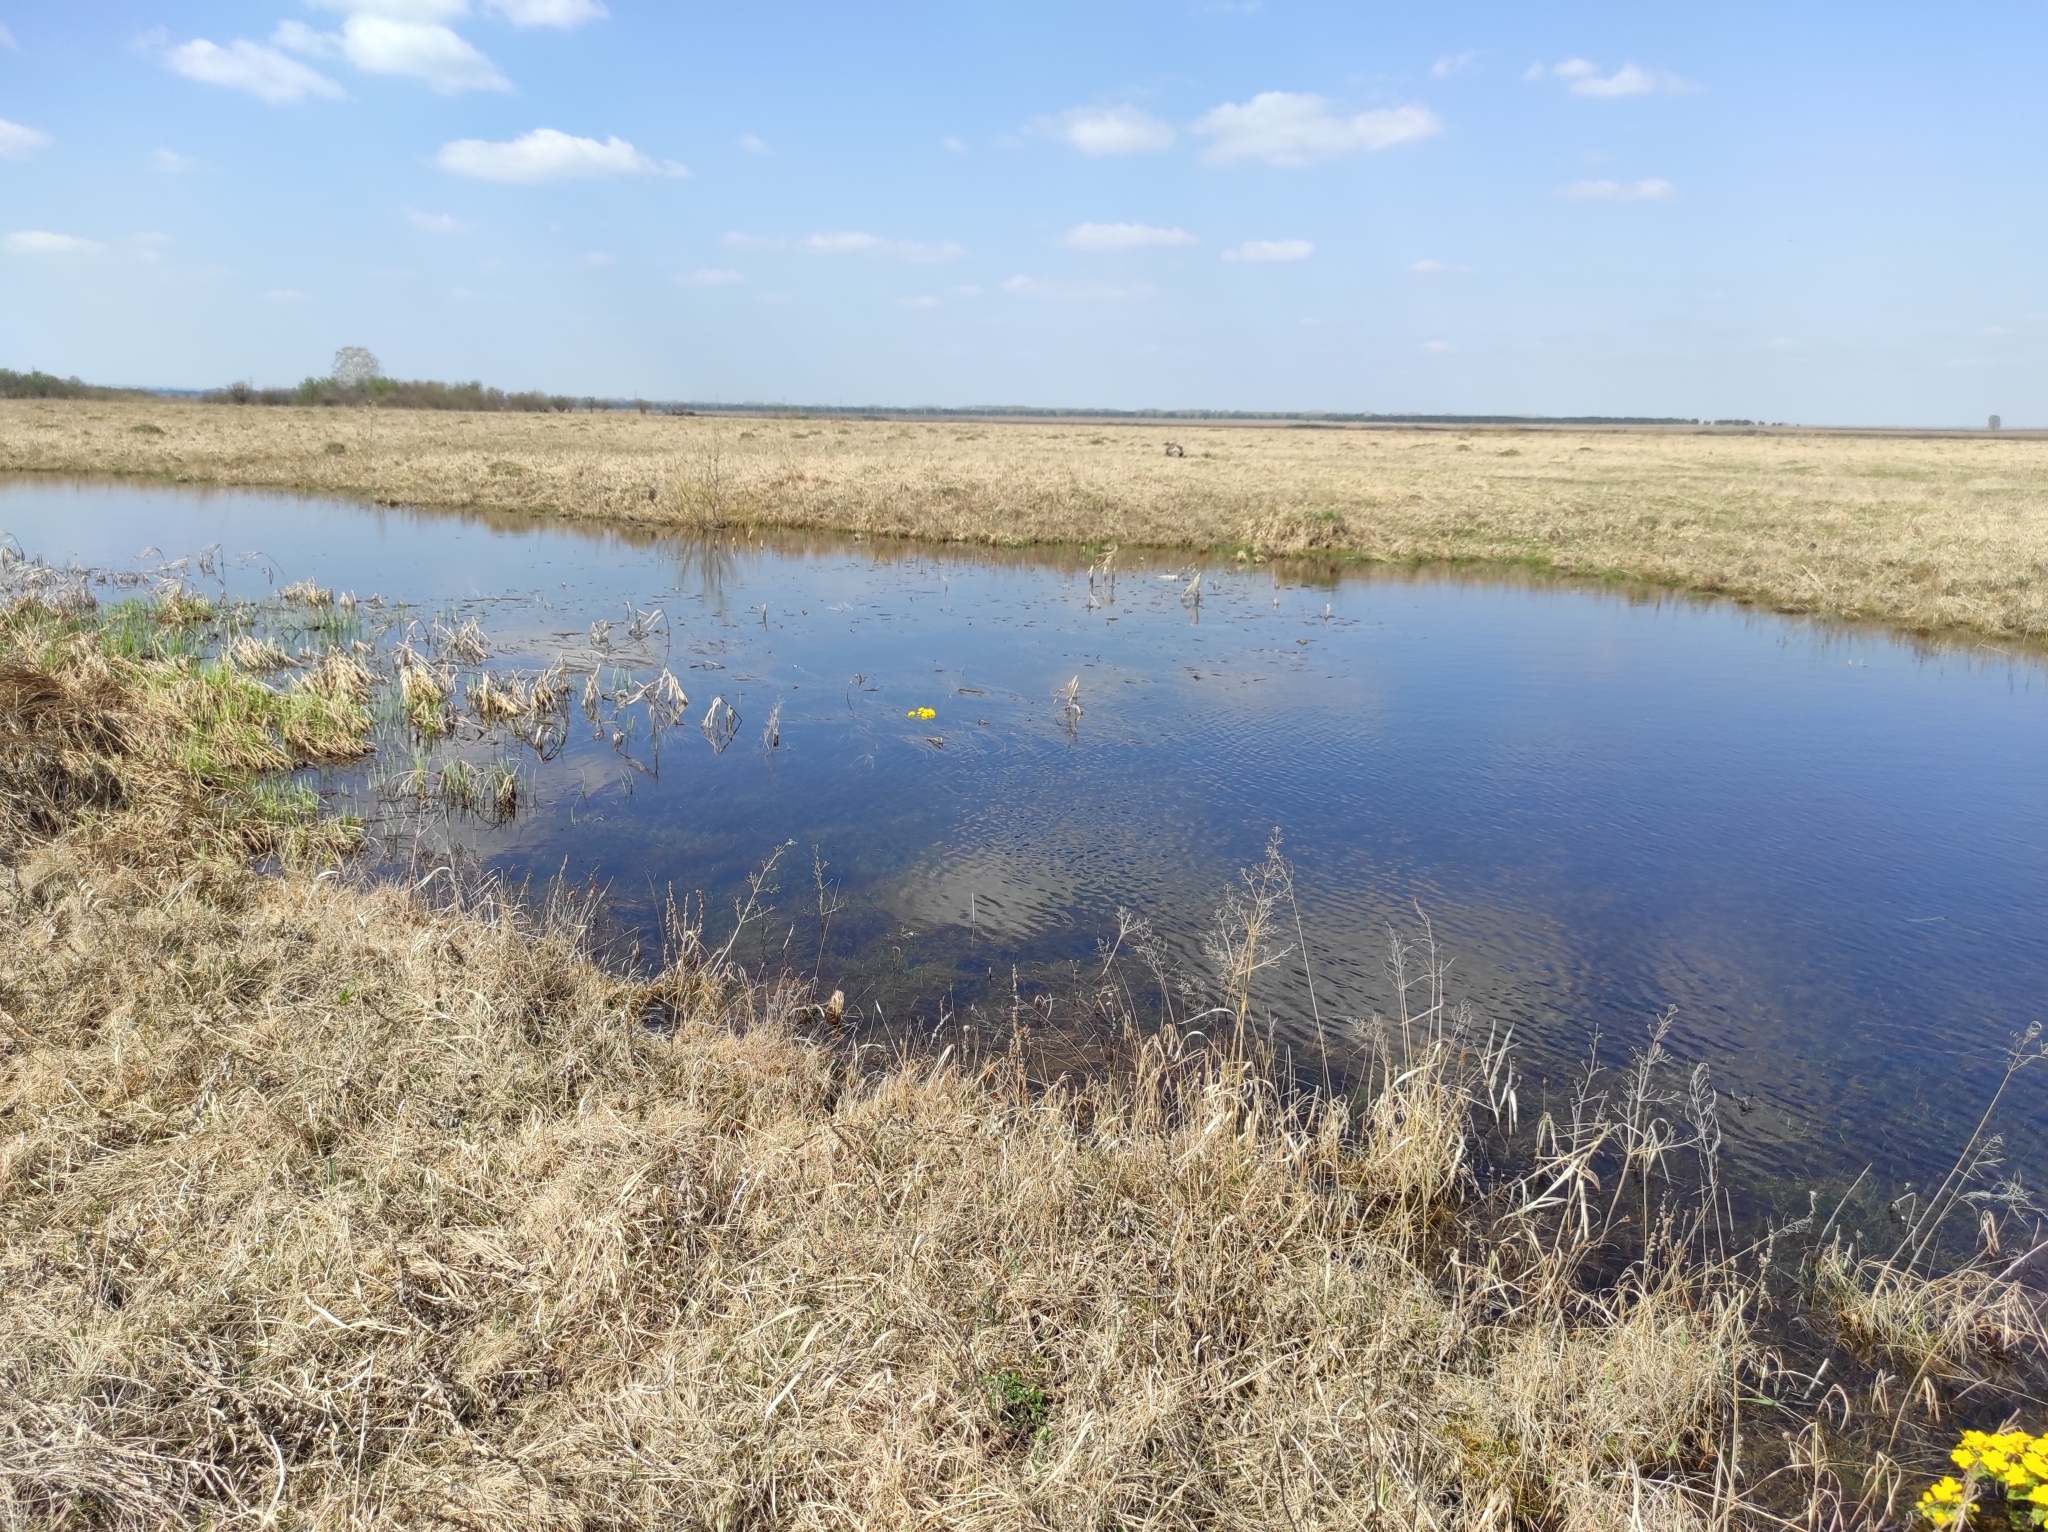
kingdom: Plantae
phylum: Tracheophyta
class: Magnoliopsida
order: Ranunculales
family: Ranunculaceae
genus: Caltha
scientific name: Caltha palustris
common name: Marsh marigold
